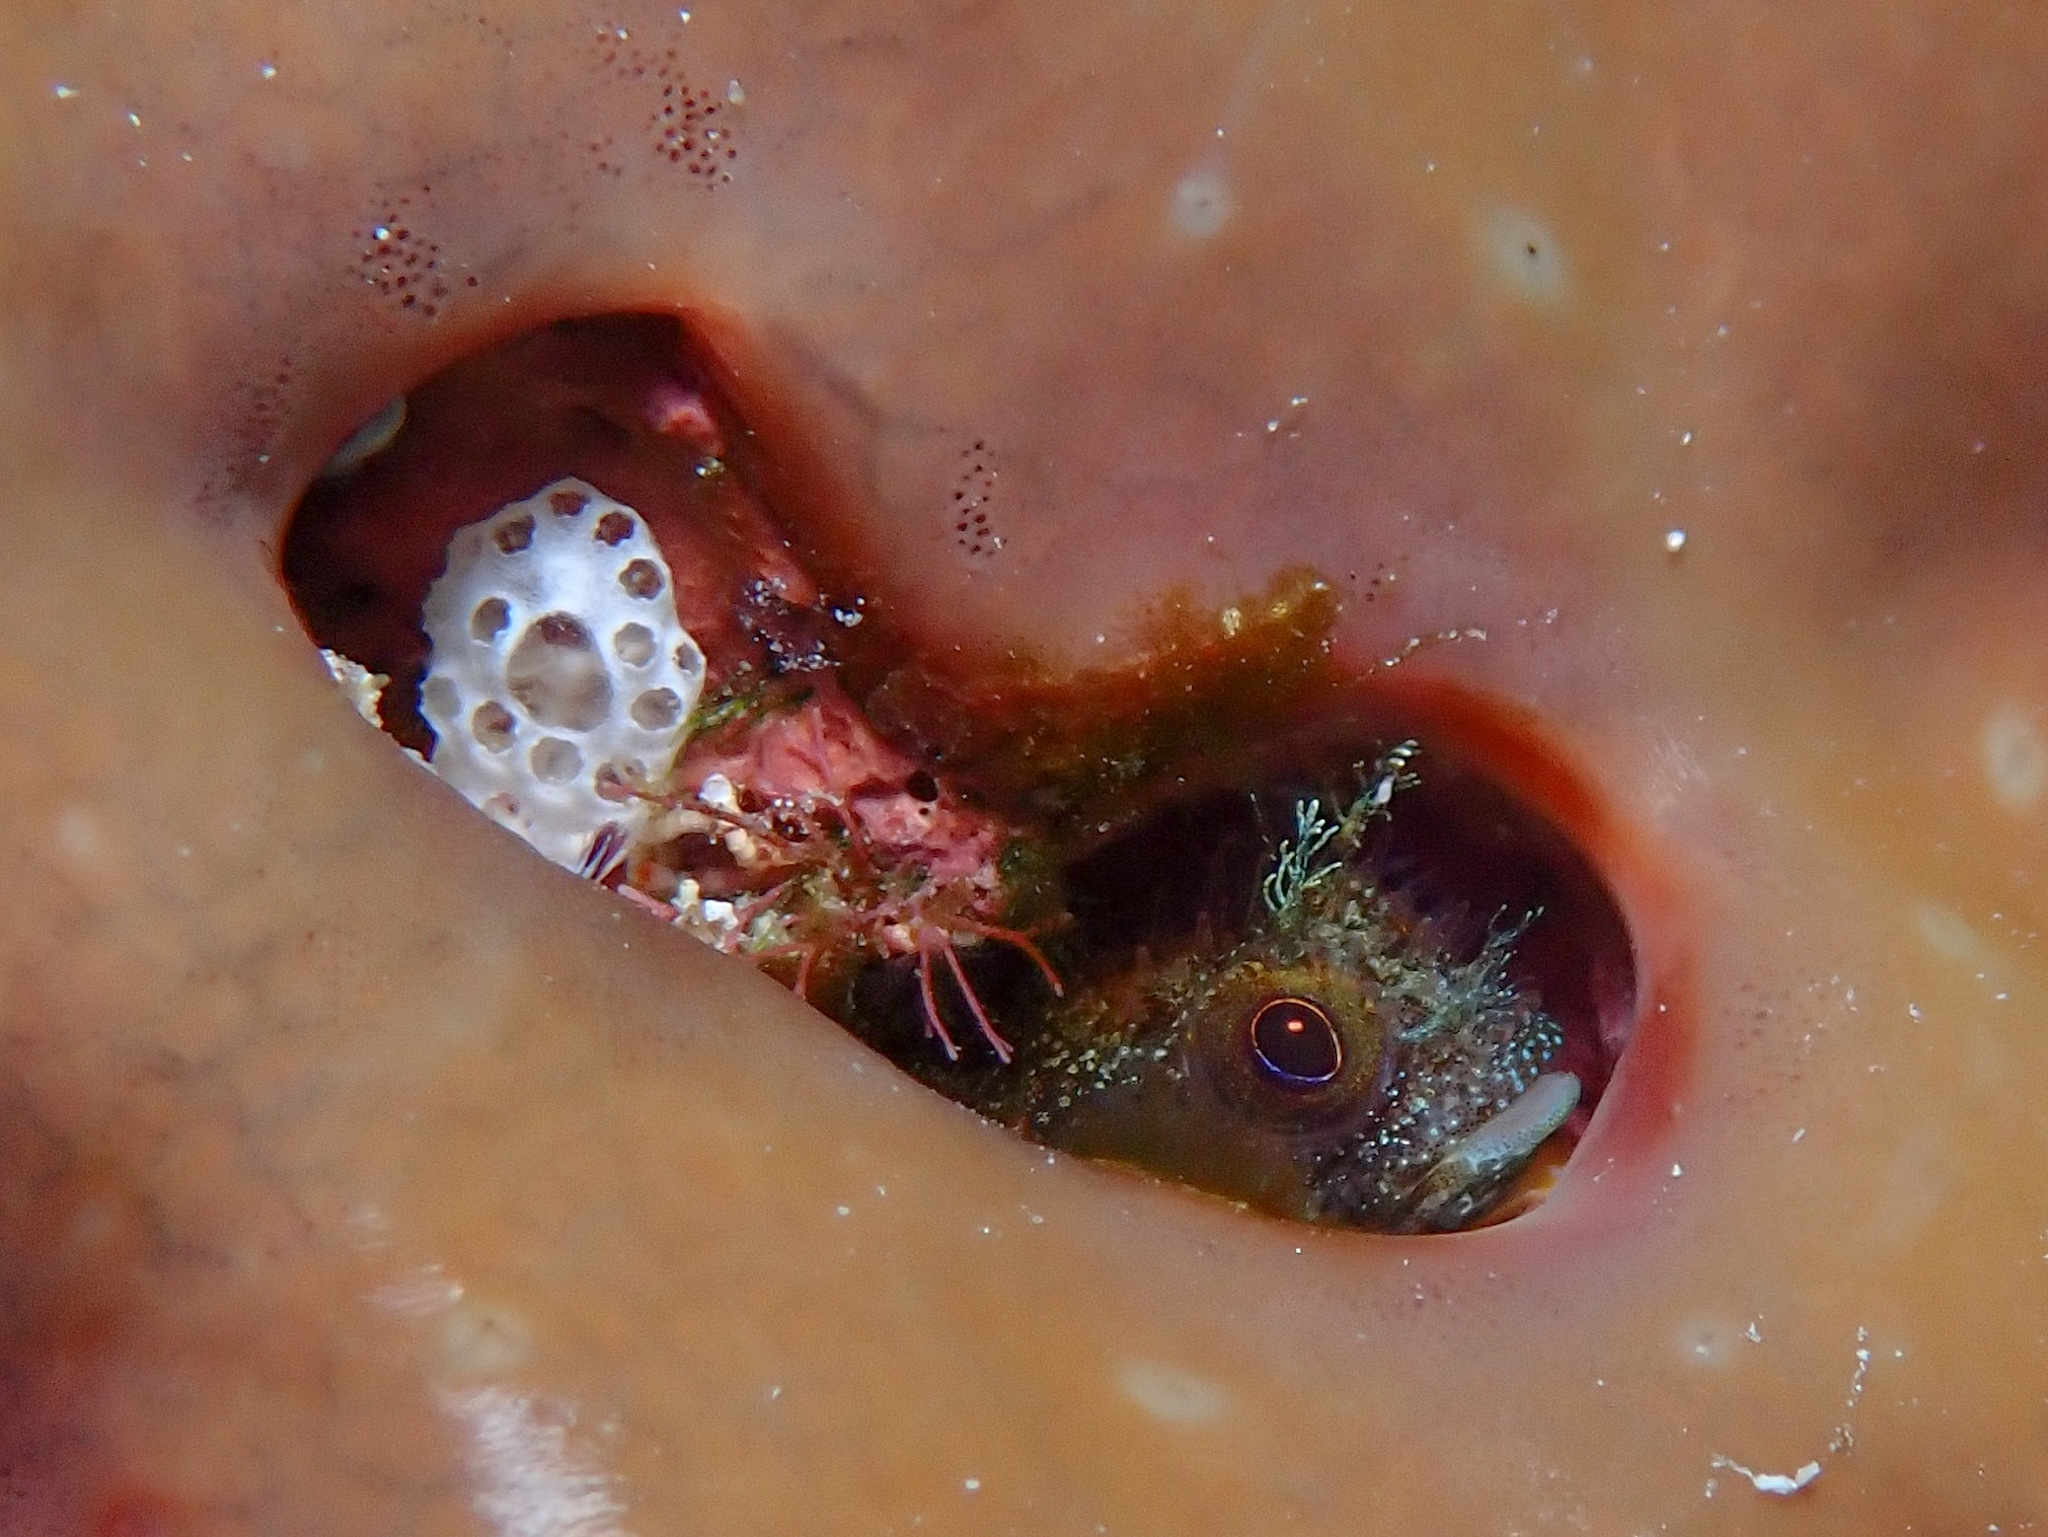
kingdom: Animalia
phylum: Chordata
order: Perciformes
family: Chaenopsidae
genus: Acanthemblemaria
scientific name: Acanthemblemaria maria
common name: Secretary blenny
